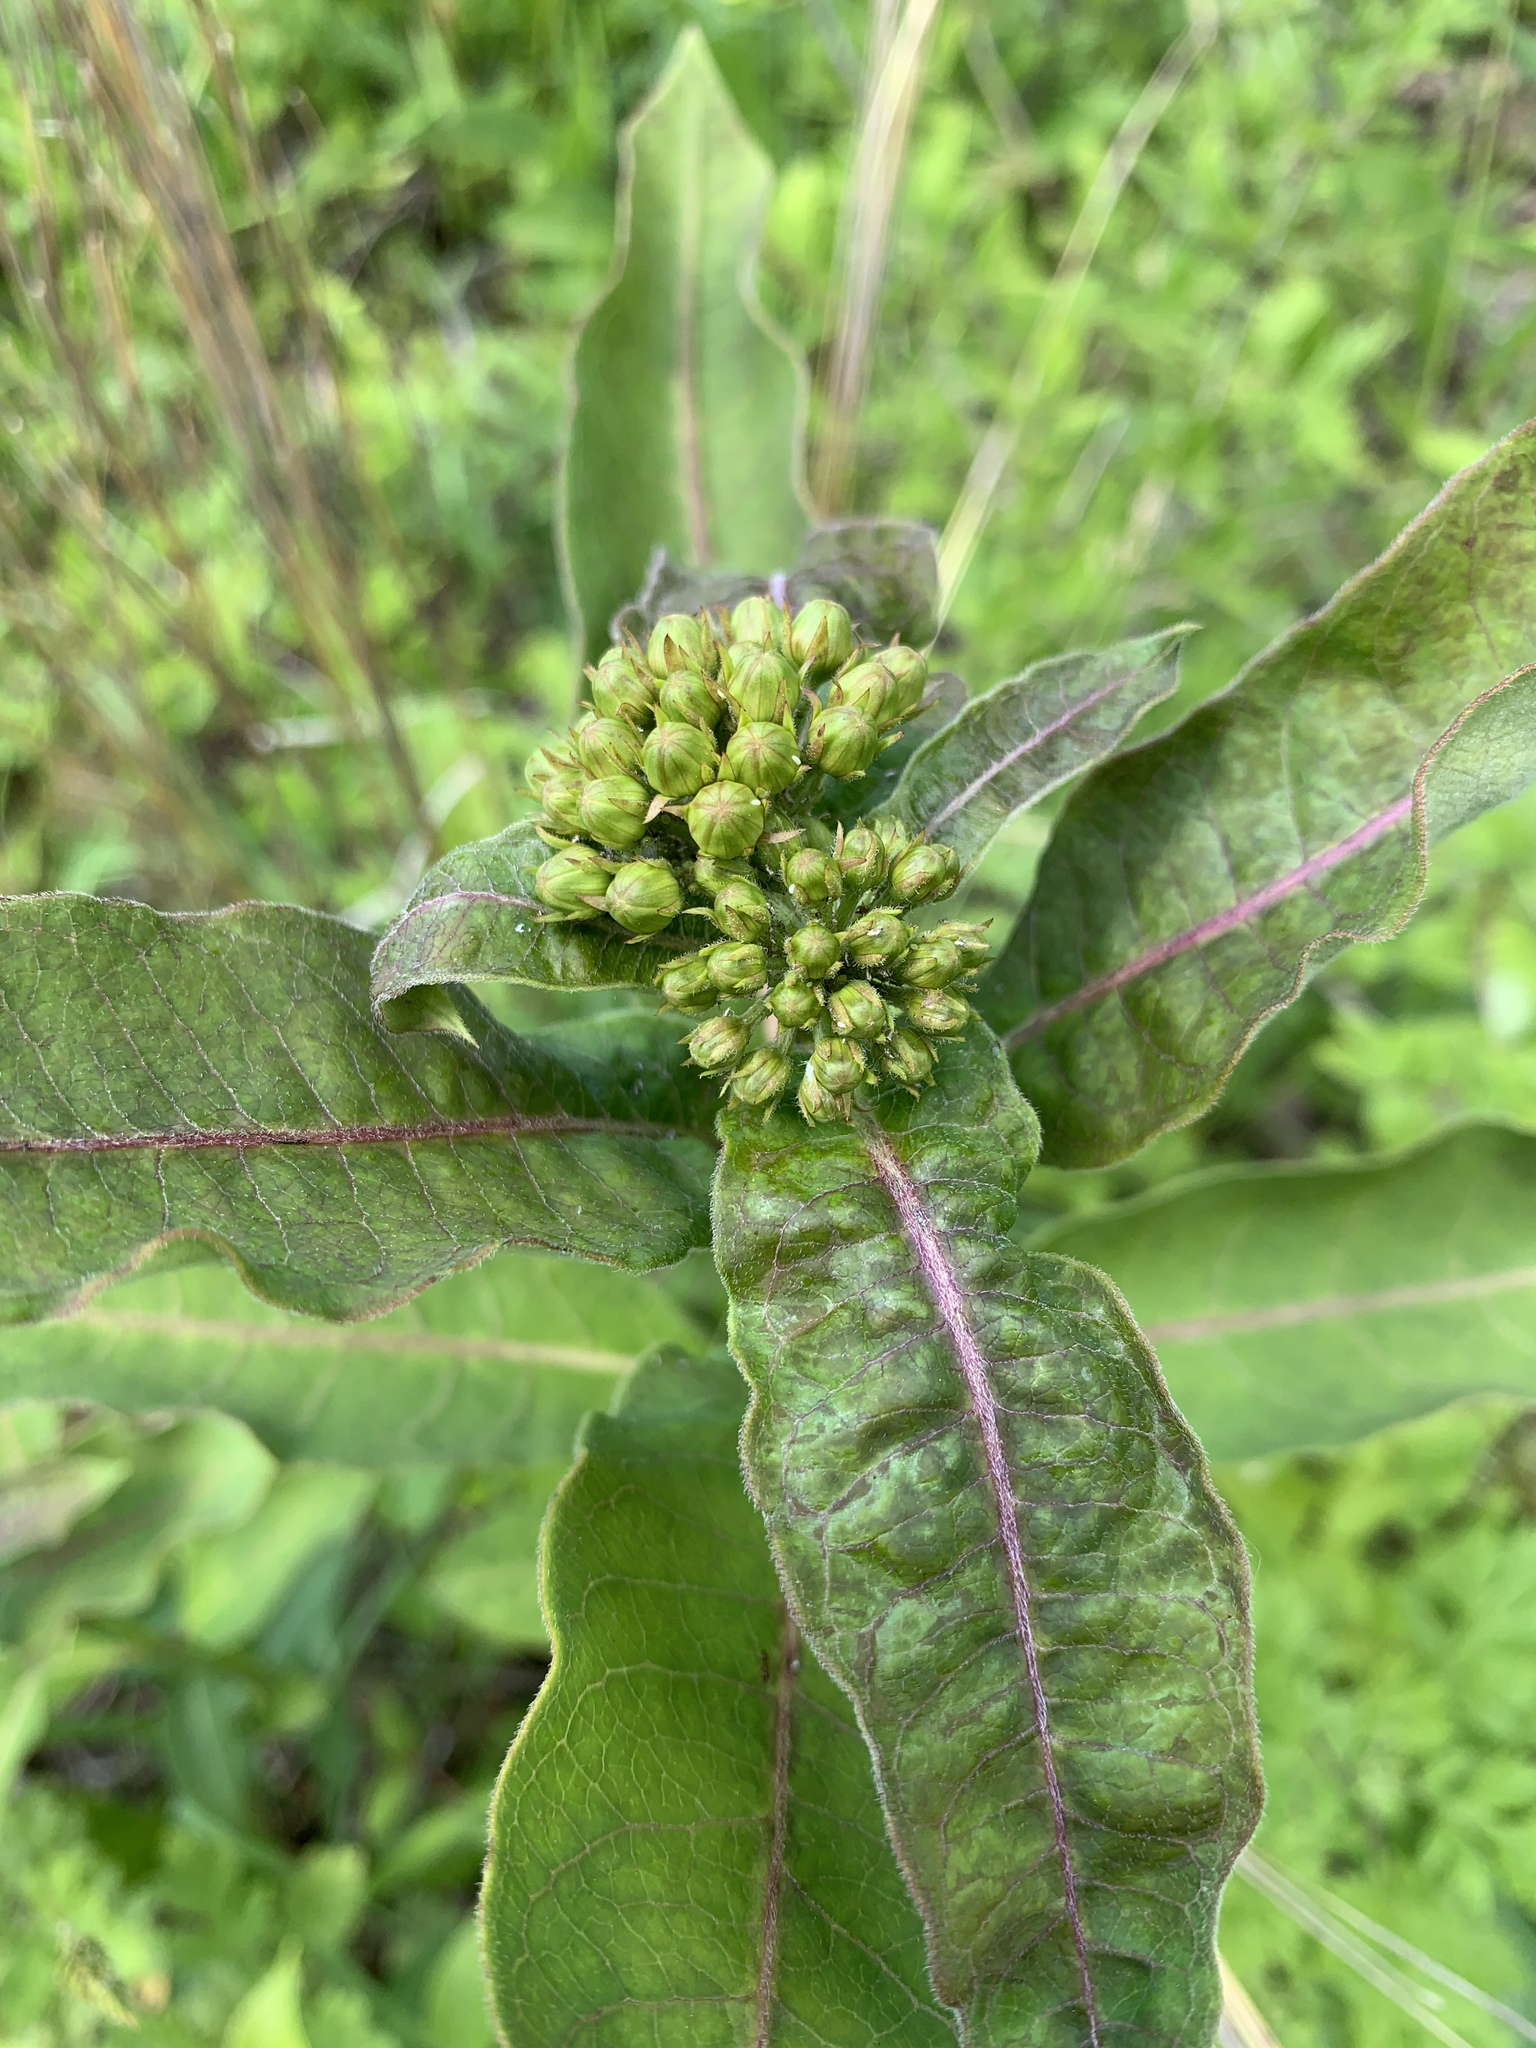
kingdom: Plantae
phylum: Tracheophyta
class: Magnoliopsida
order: Gentianales
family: Apocynaceae
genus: Asclepias
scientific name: Asclepias purpurascens
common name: Purple milkweed
